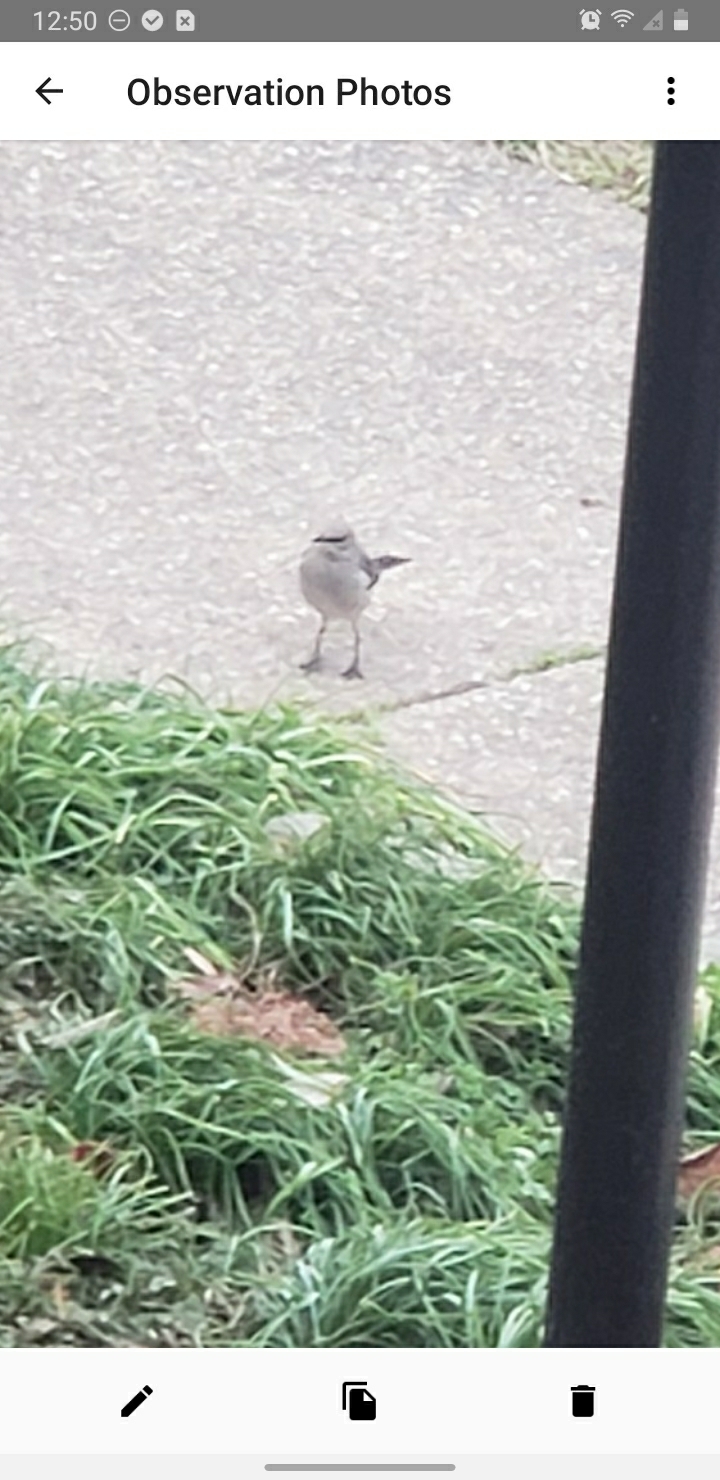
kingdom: Animalia
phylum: Chordata
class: Aves
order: Passeriformes
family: Mimidae
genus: Mimus
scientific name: Mimus polyglottos
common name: Northern mockingbird
